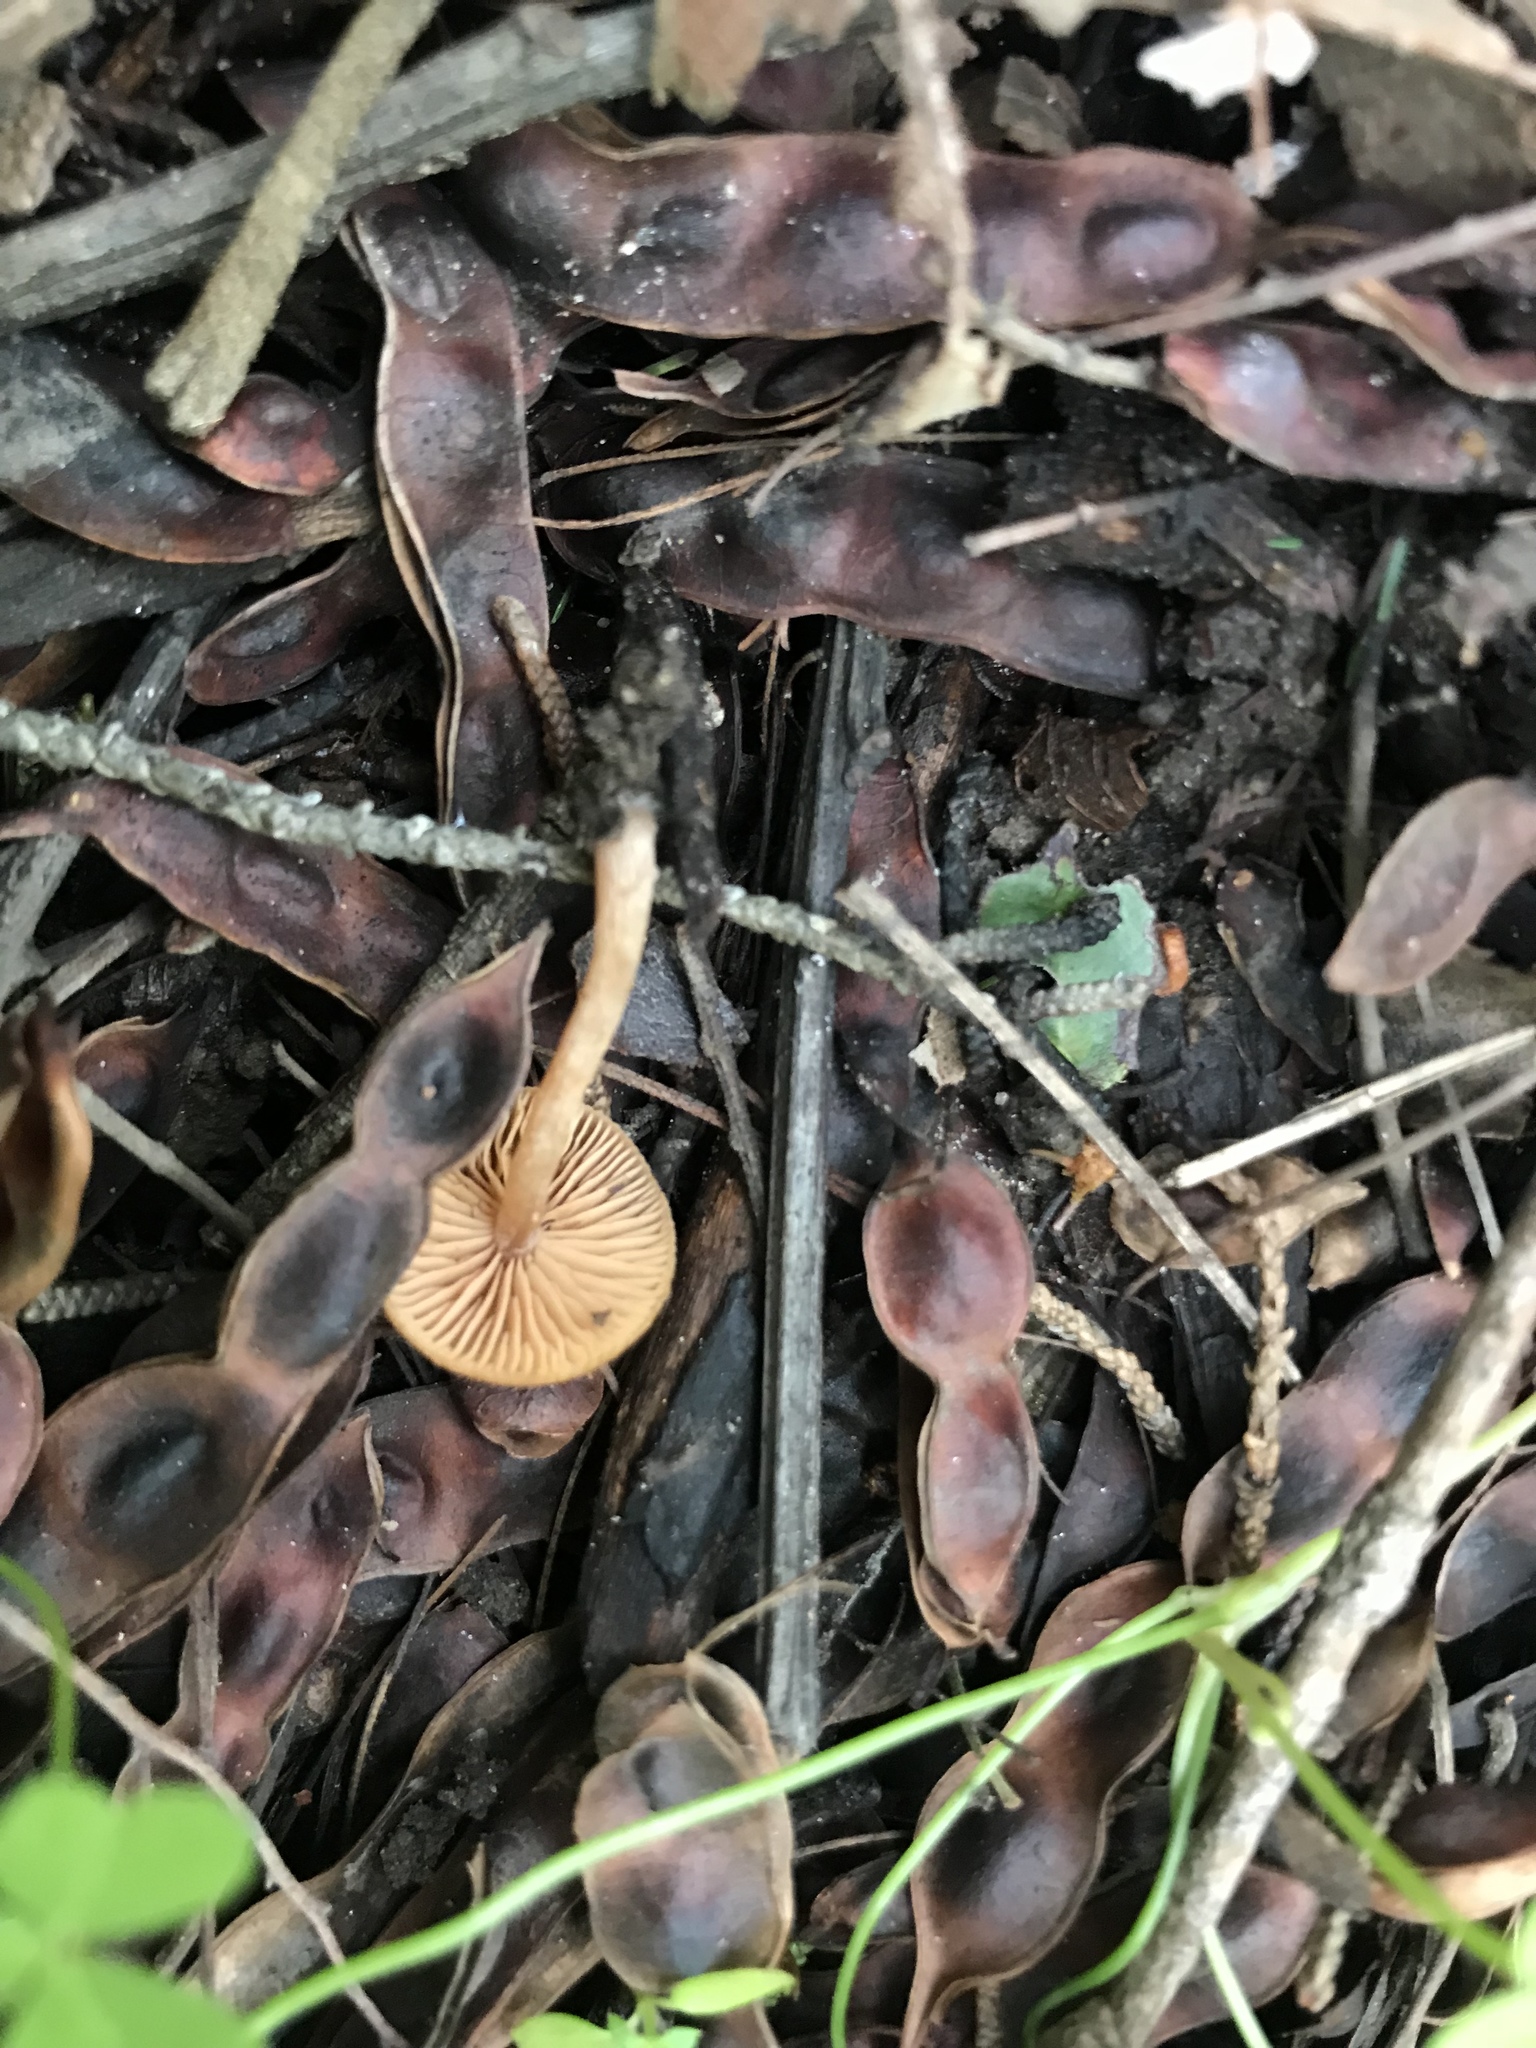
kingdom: Fungi
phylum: Basidiomycota
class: Agaricomycetes
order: Agaricales
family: Tubariaceae
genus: Tubaria
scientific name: Tubaria furfuracea
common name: Scurfy twiglet
